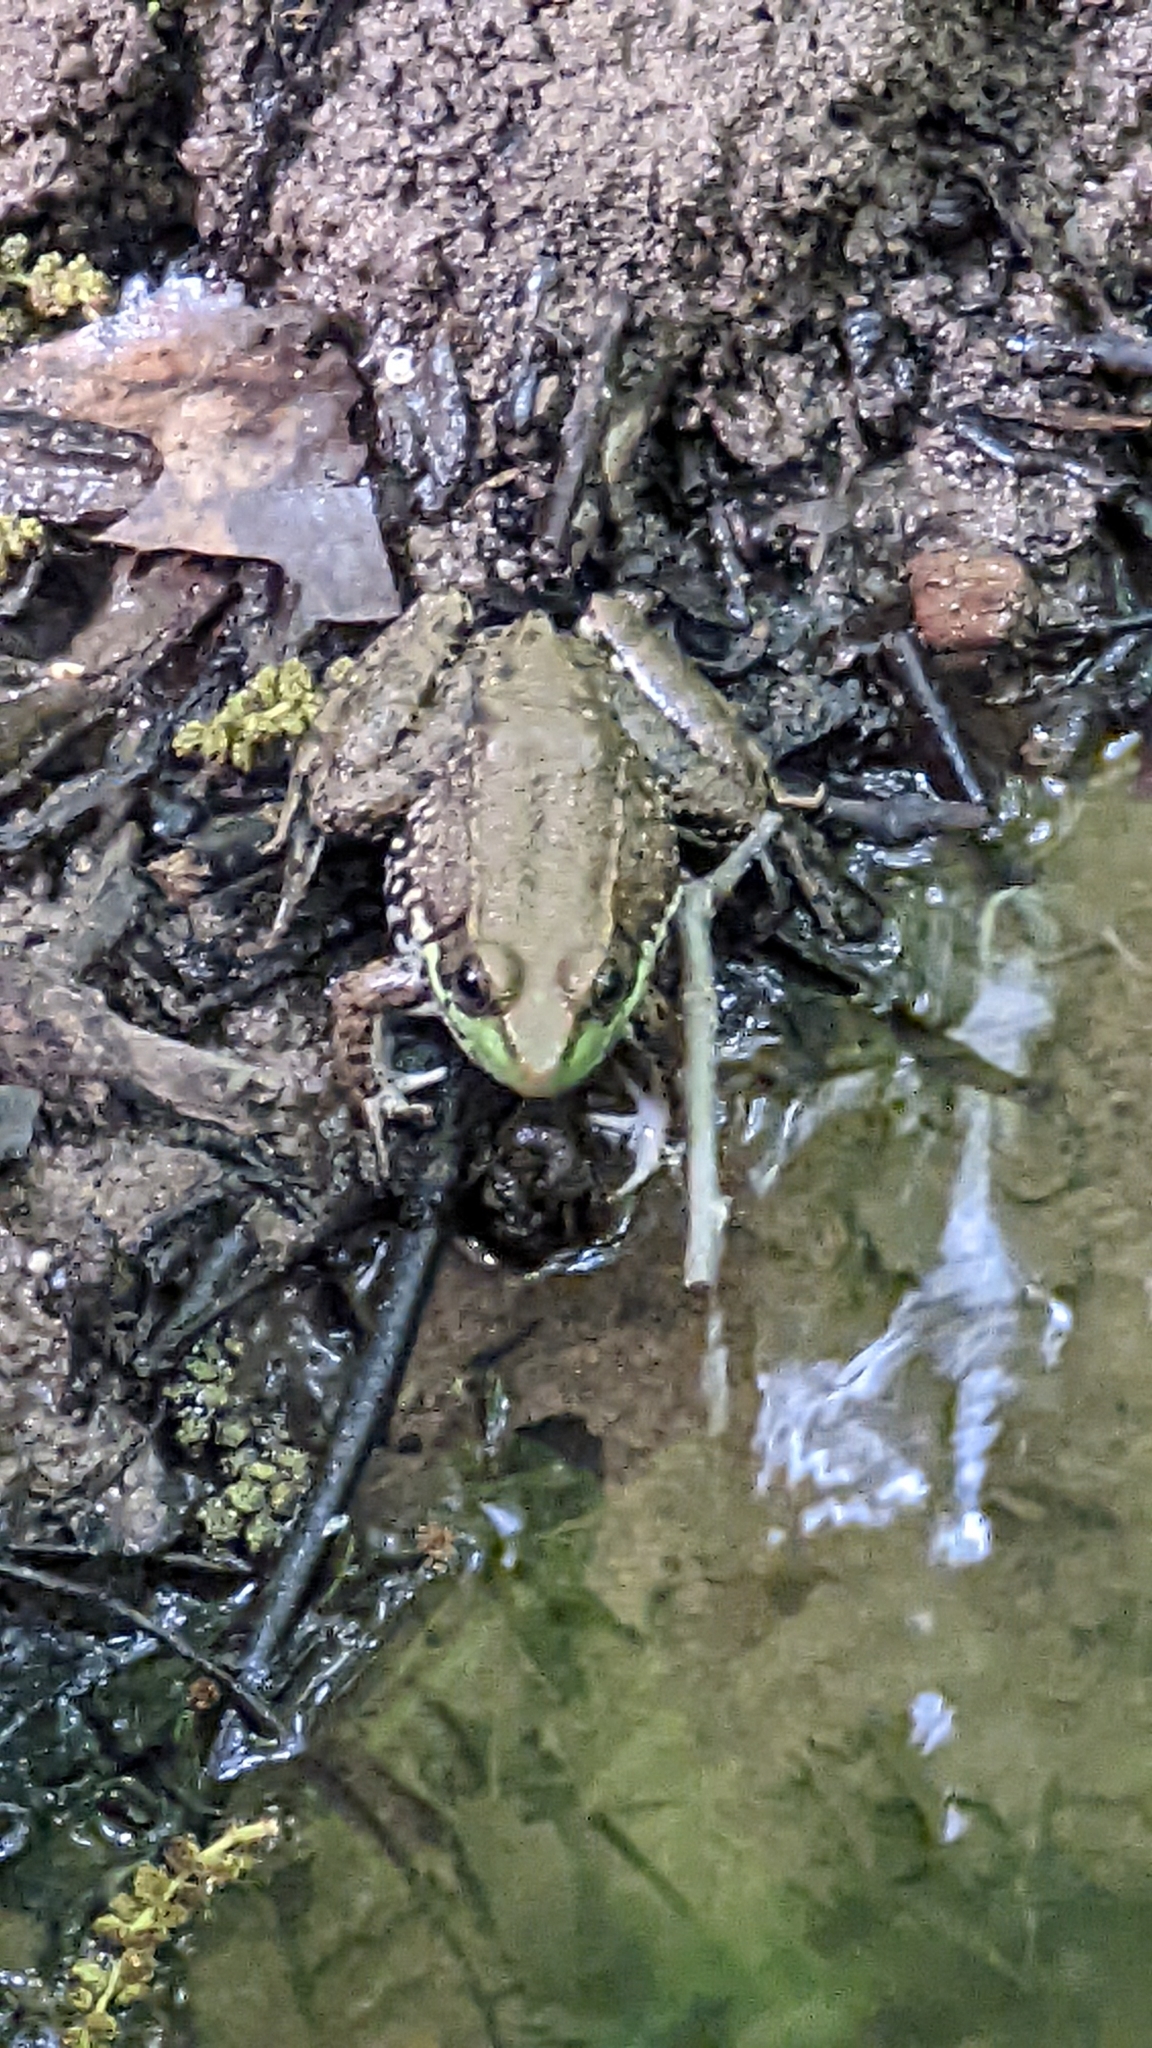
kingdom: Animalia
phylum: Chordata
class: Amphibia
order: Anura
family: Ranidae
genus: Lithobates
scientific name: Lithobates clamitans
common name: Green frog
